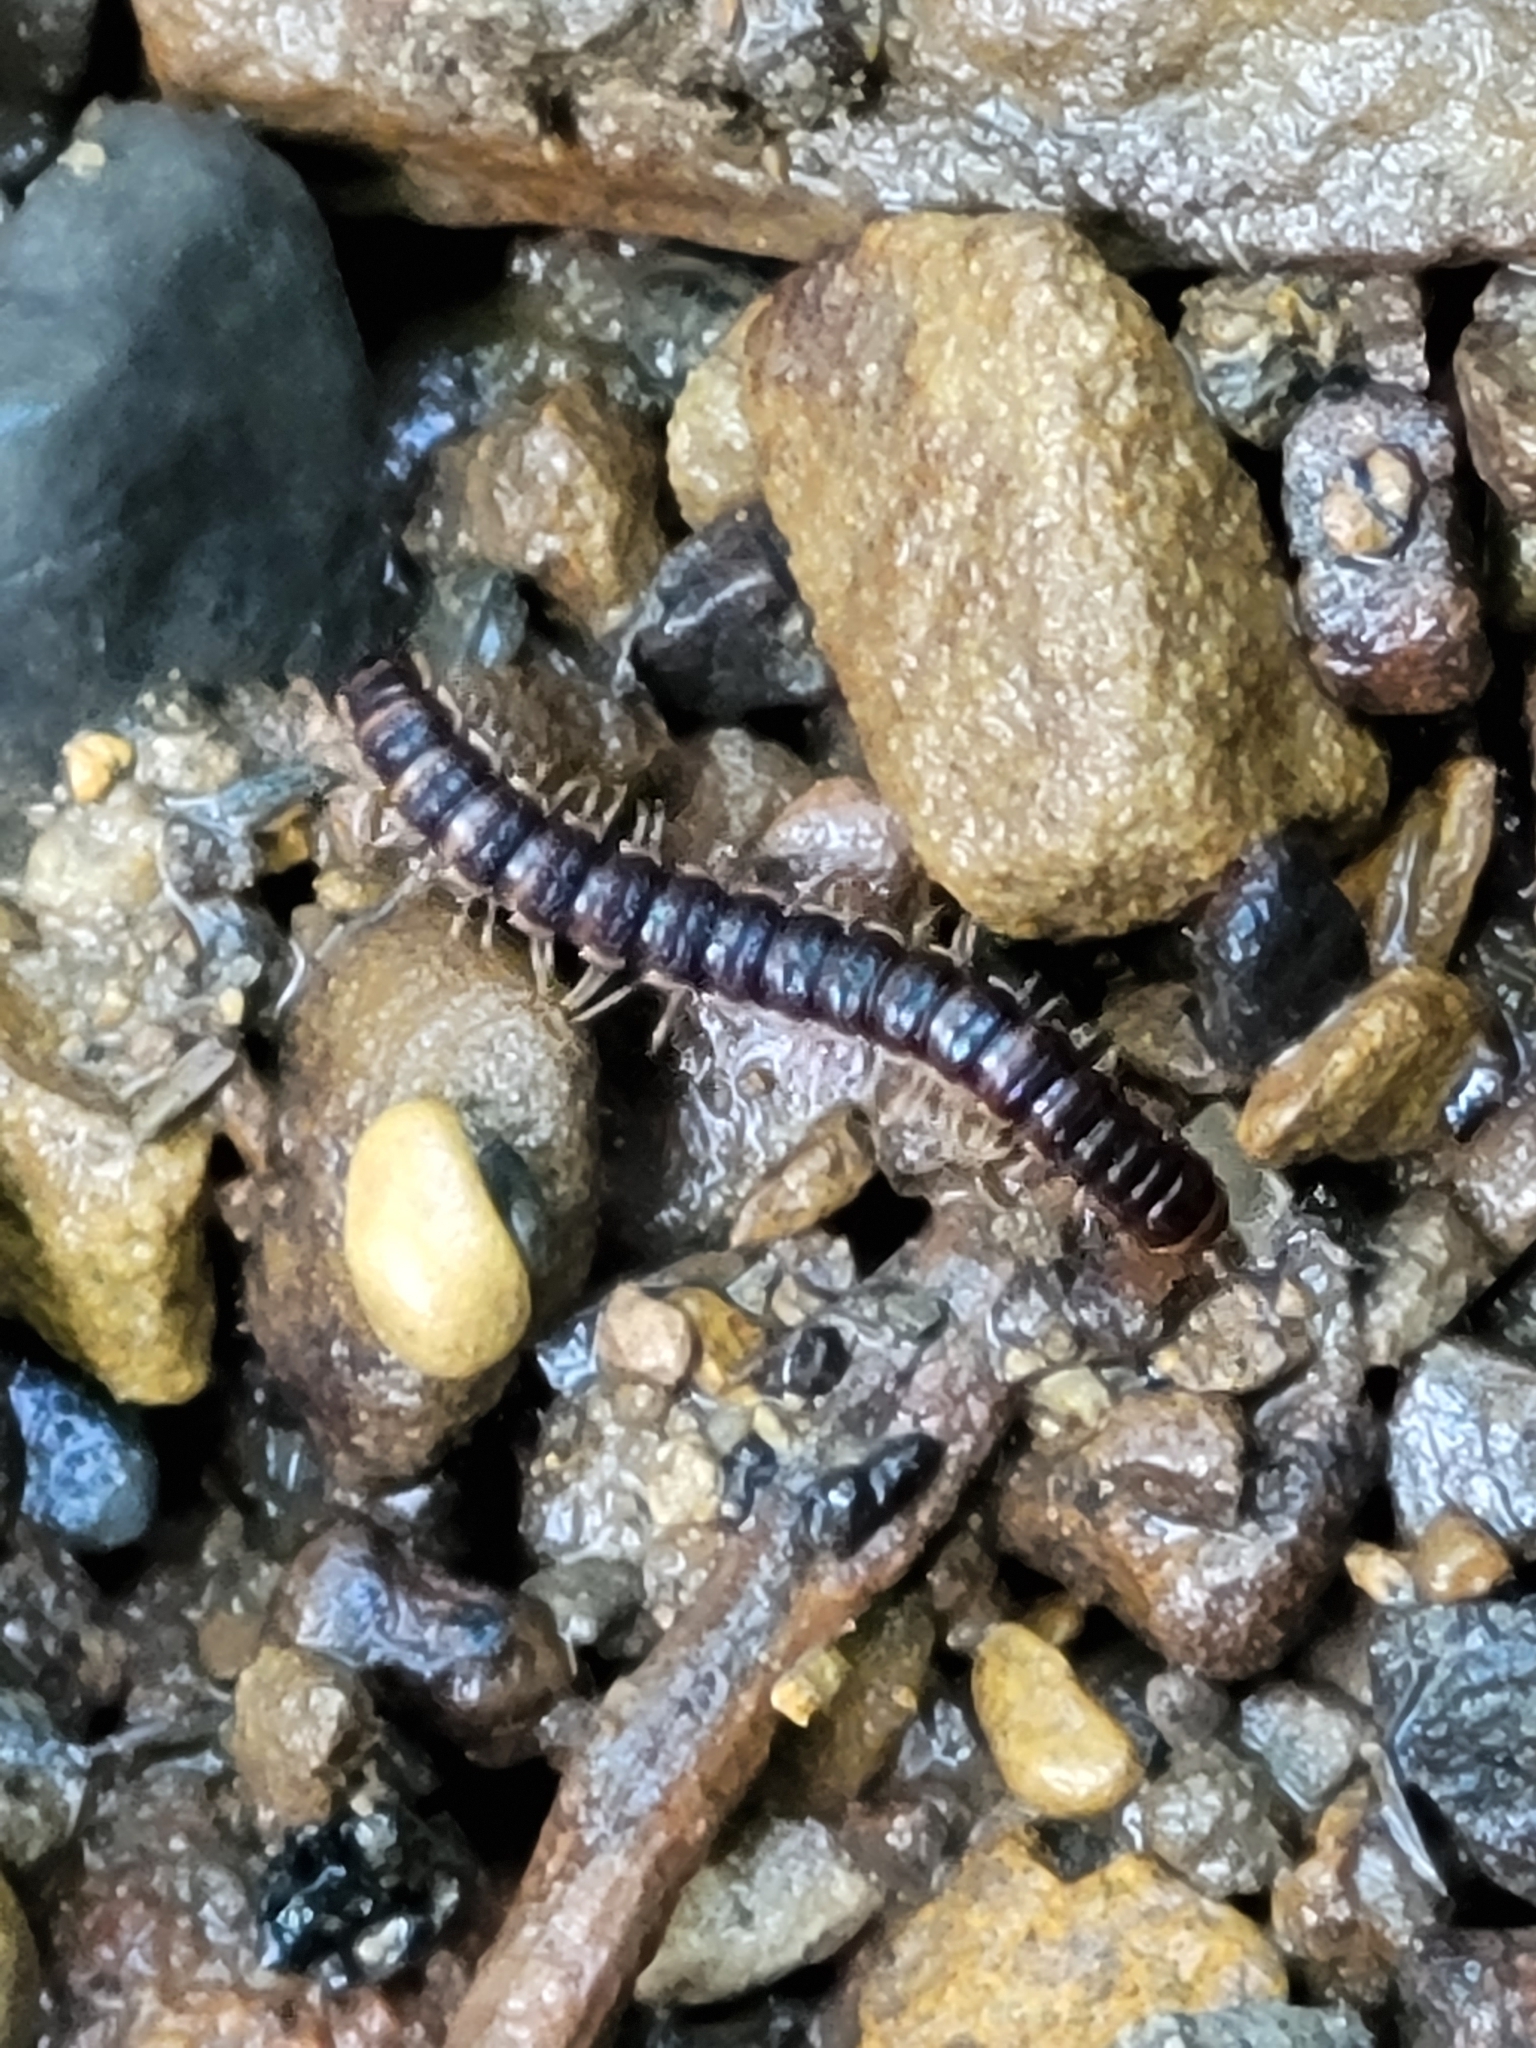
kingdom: Animalia
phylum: Arthropoda
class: Diplopoda
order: Polydesmida
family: Paradoxosomatidae
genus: Oxidus
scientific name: Oxidus gracilis
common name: Greenhouse millipede
